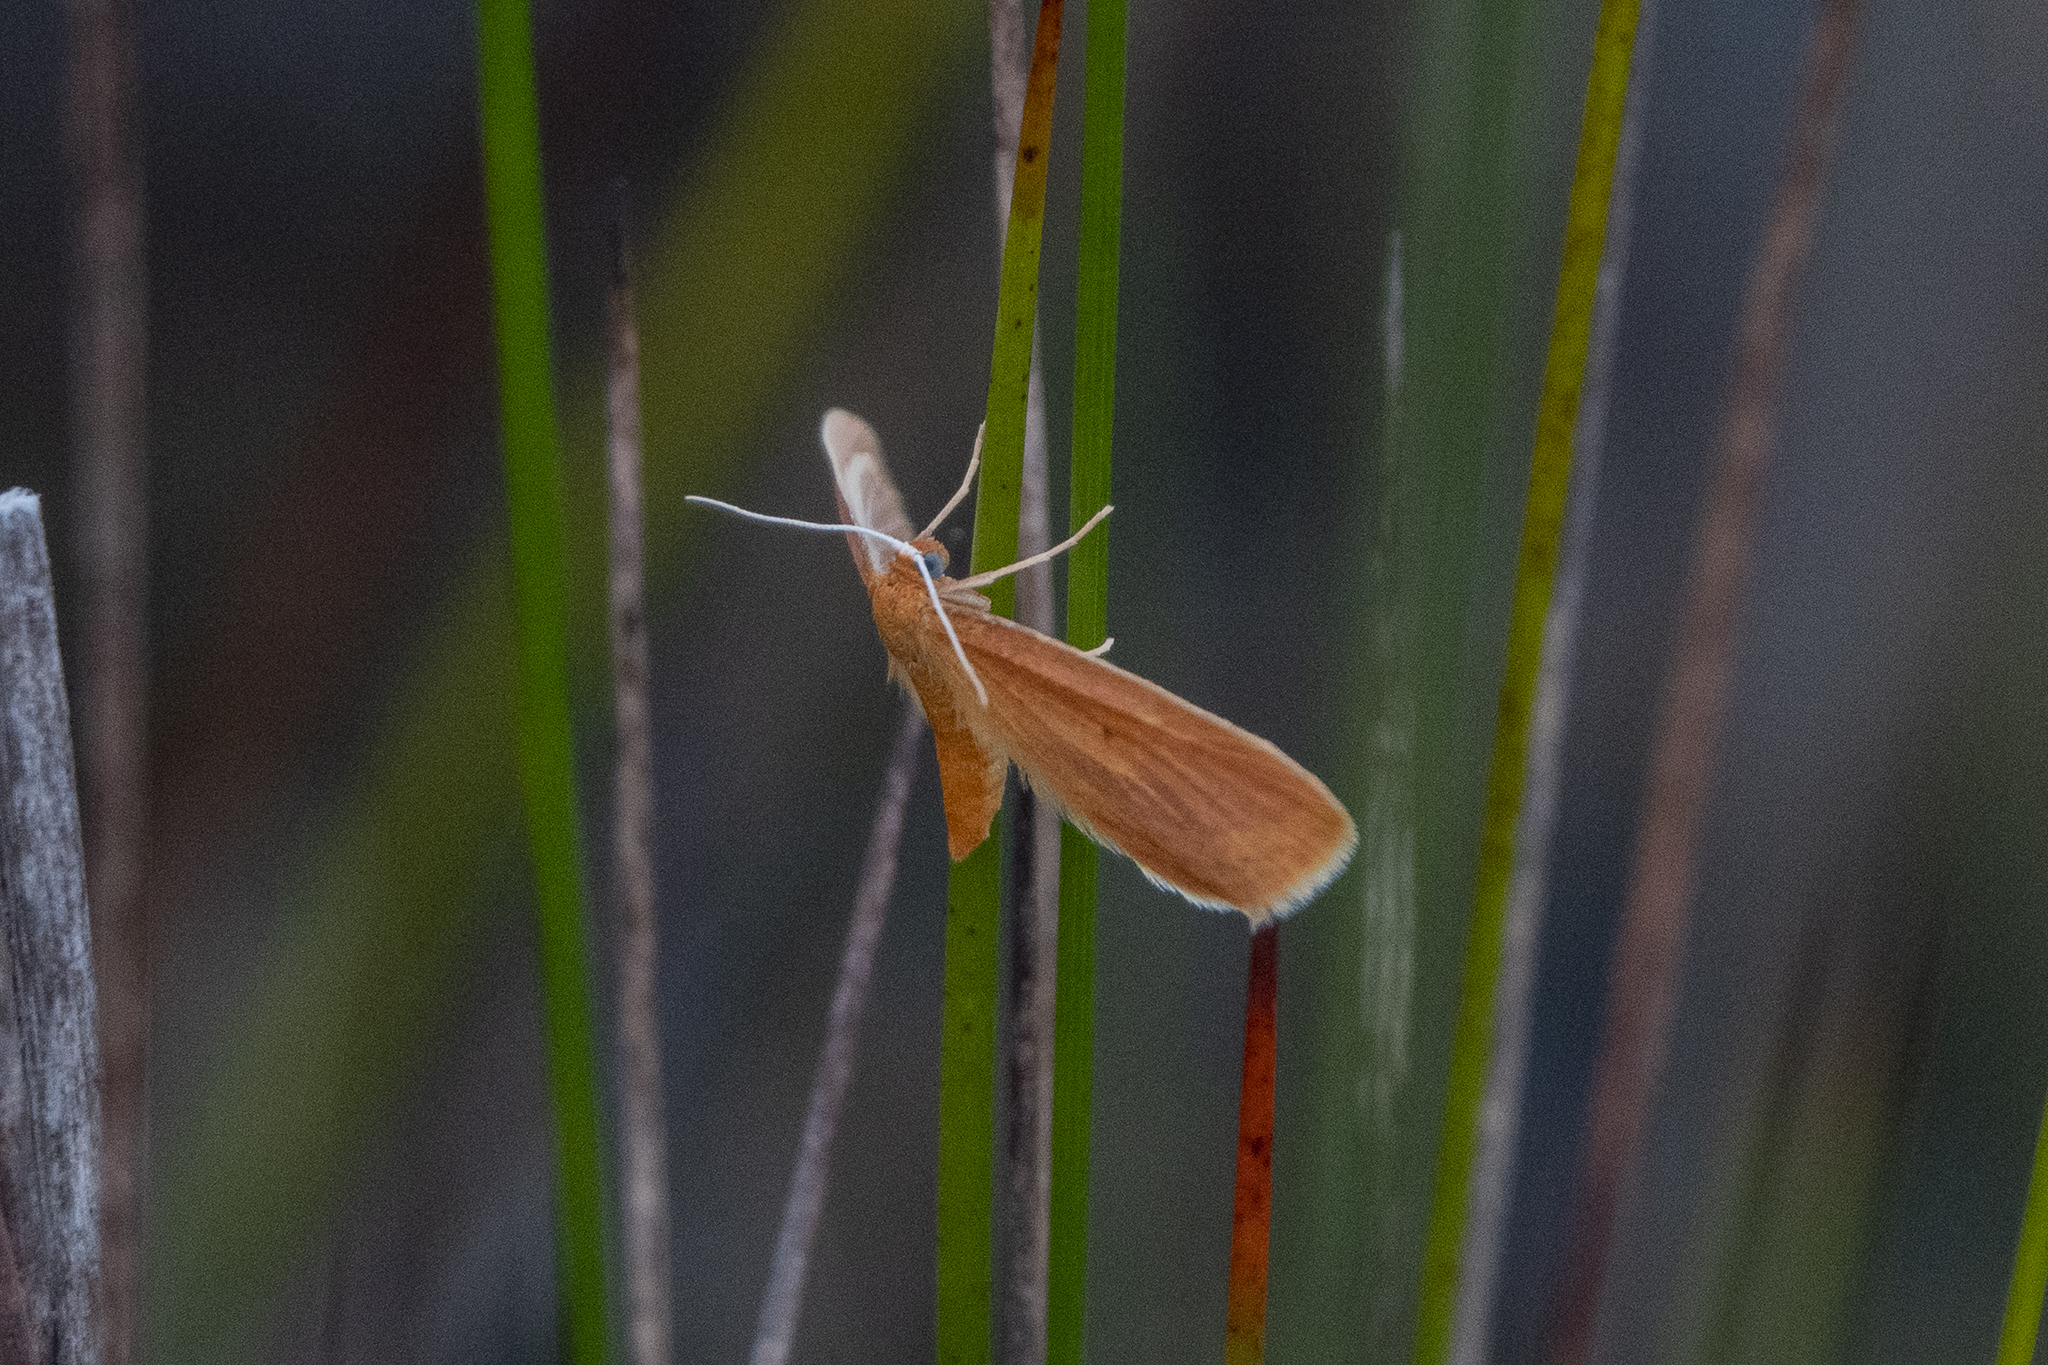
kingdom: Animalia
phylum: Arthropoda
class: Insecta
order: Lepidoptera
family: Geometridae
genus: Epiphryne
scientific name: Epiphryne charidema
